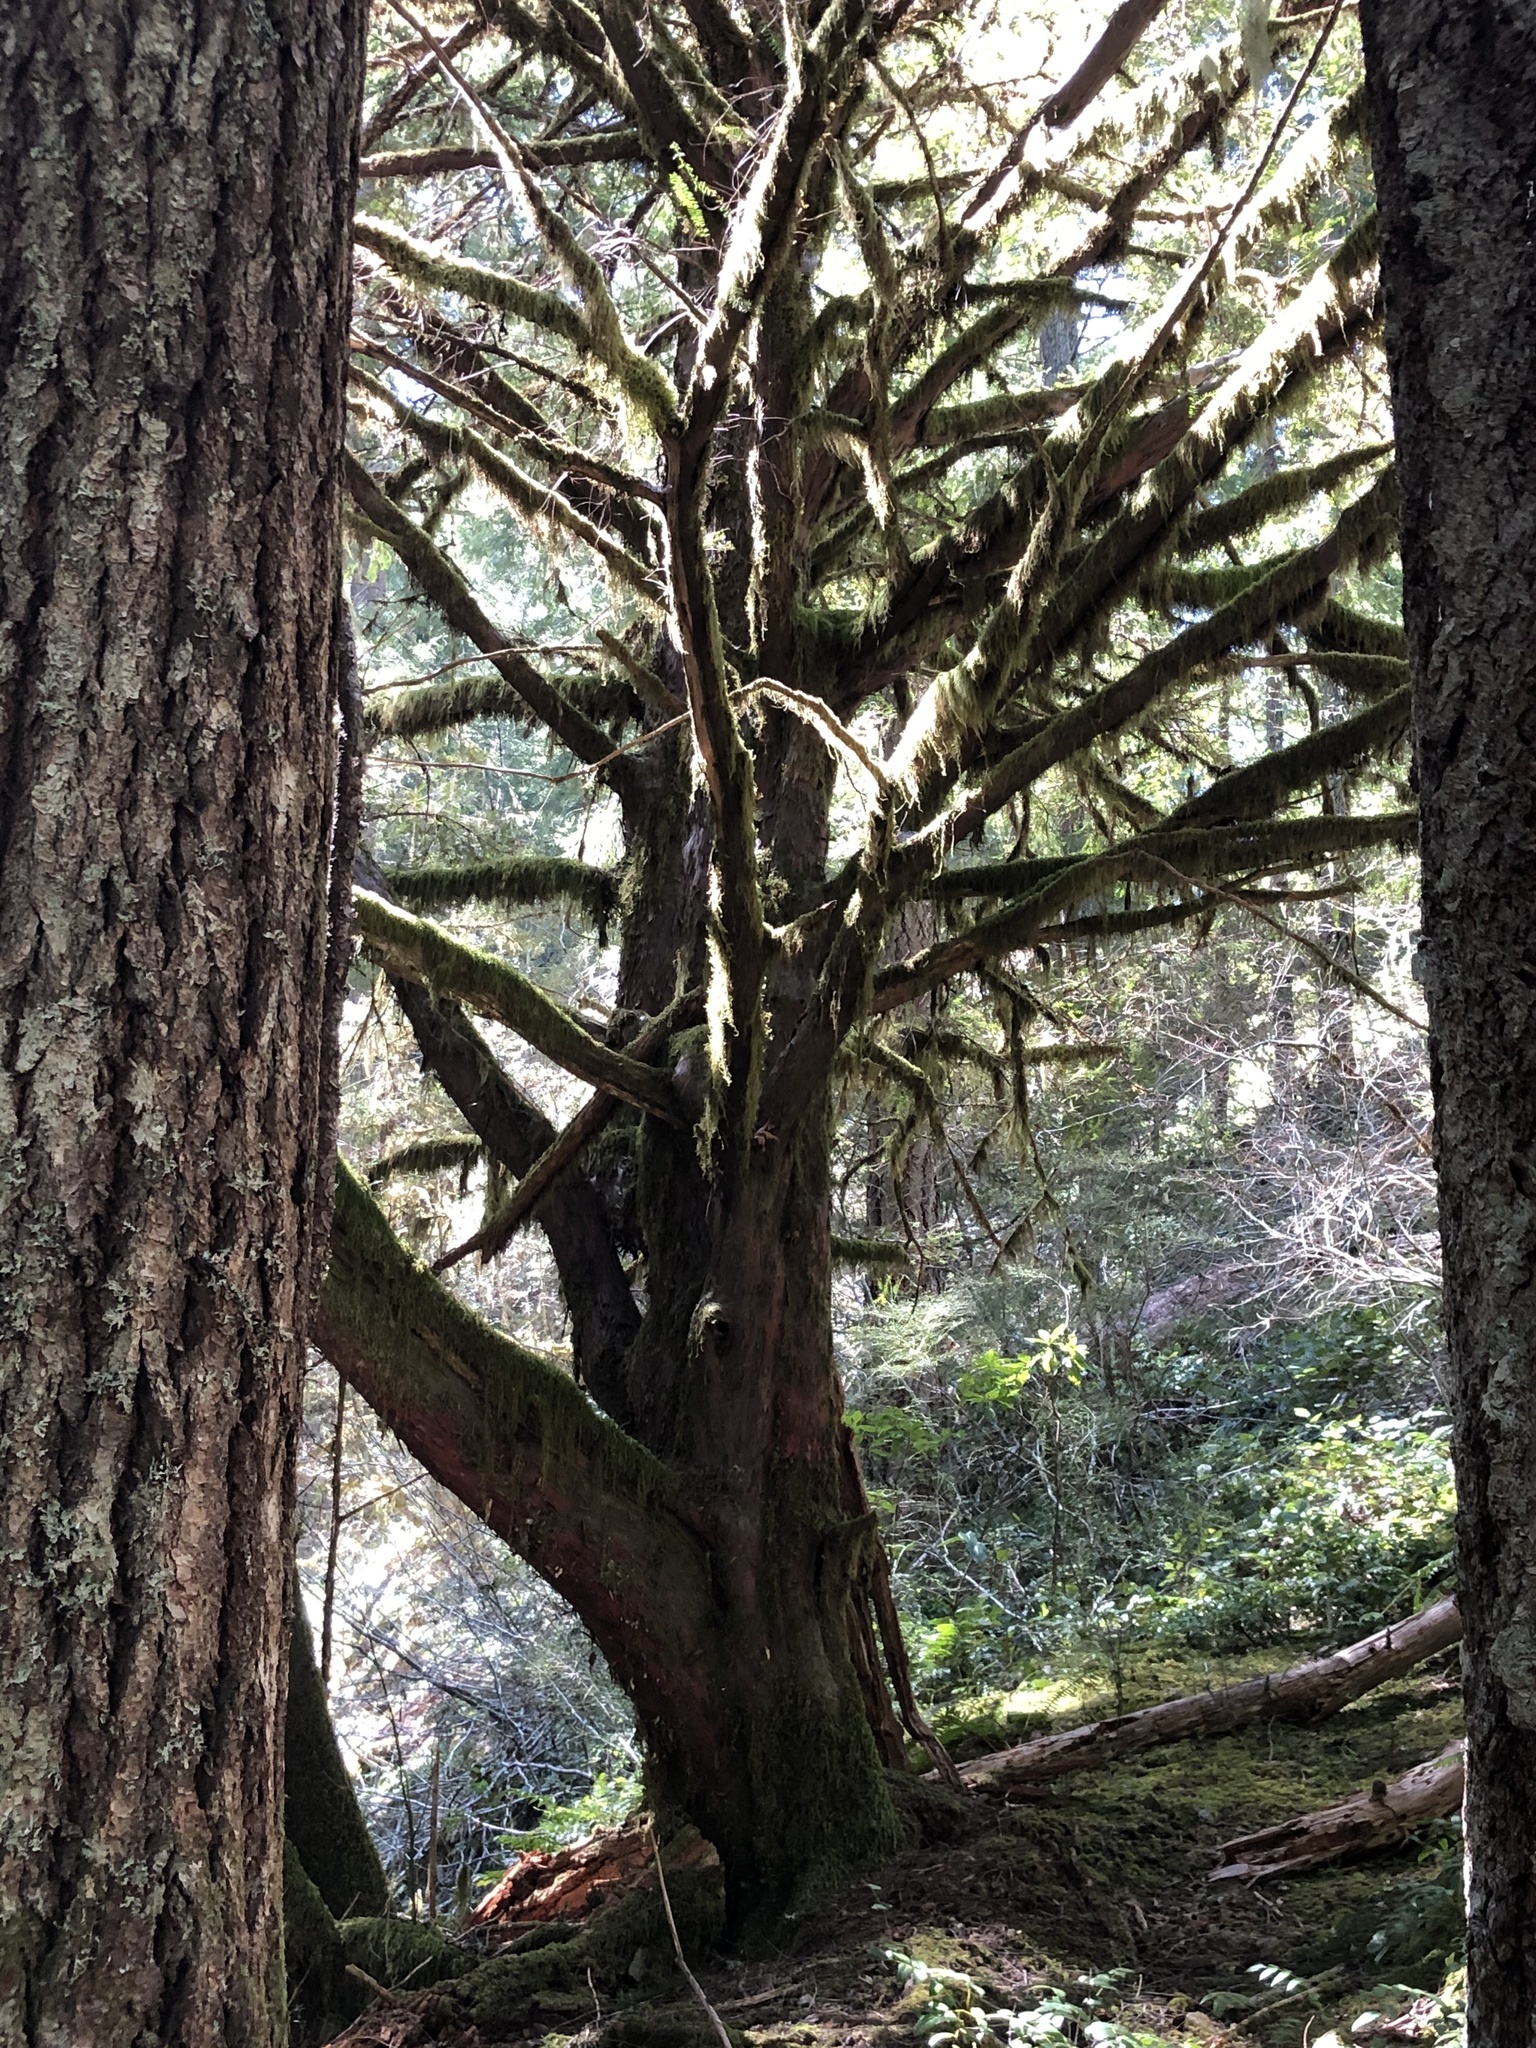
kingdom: Plantae
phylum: Tracheophyta
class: Pinopsida
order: Pinales
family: Taxaceae
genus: Taxus
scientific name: Taxus brevifolia
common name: Pacific yew
